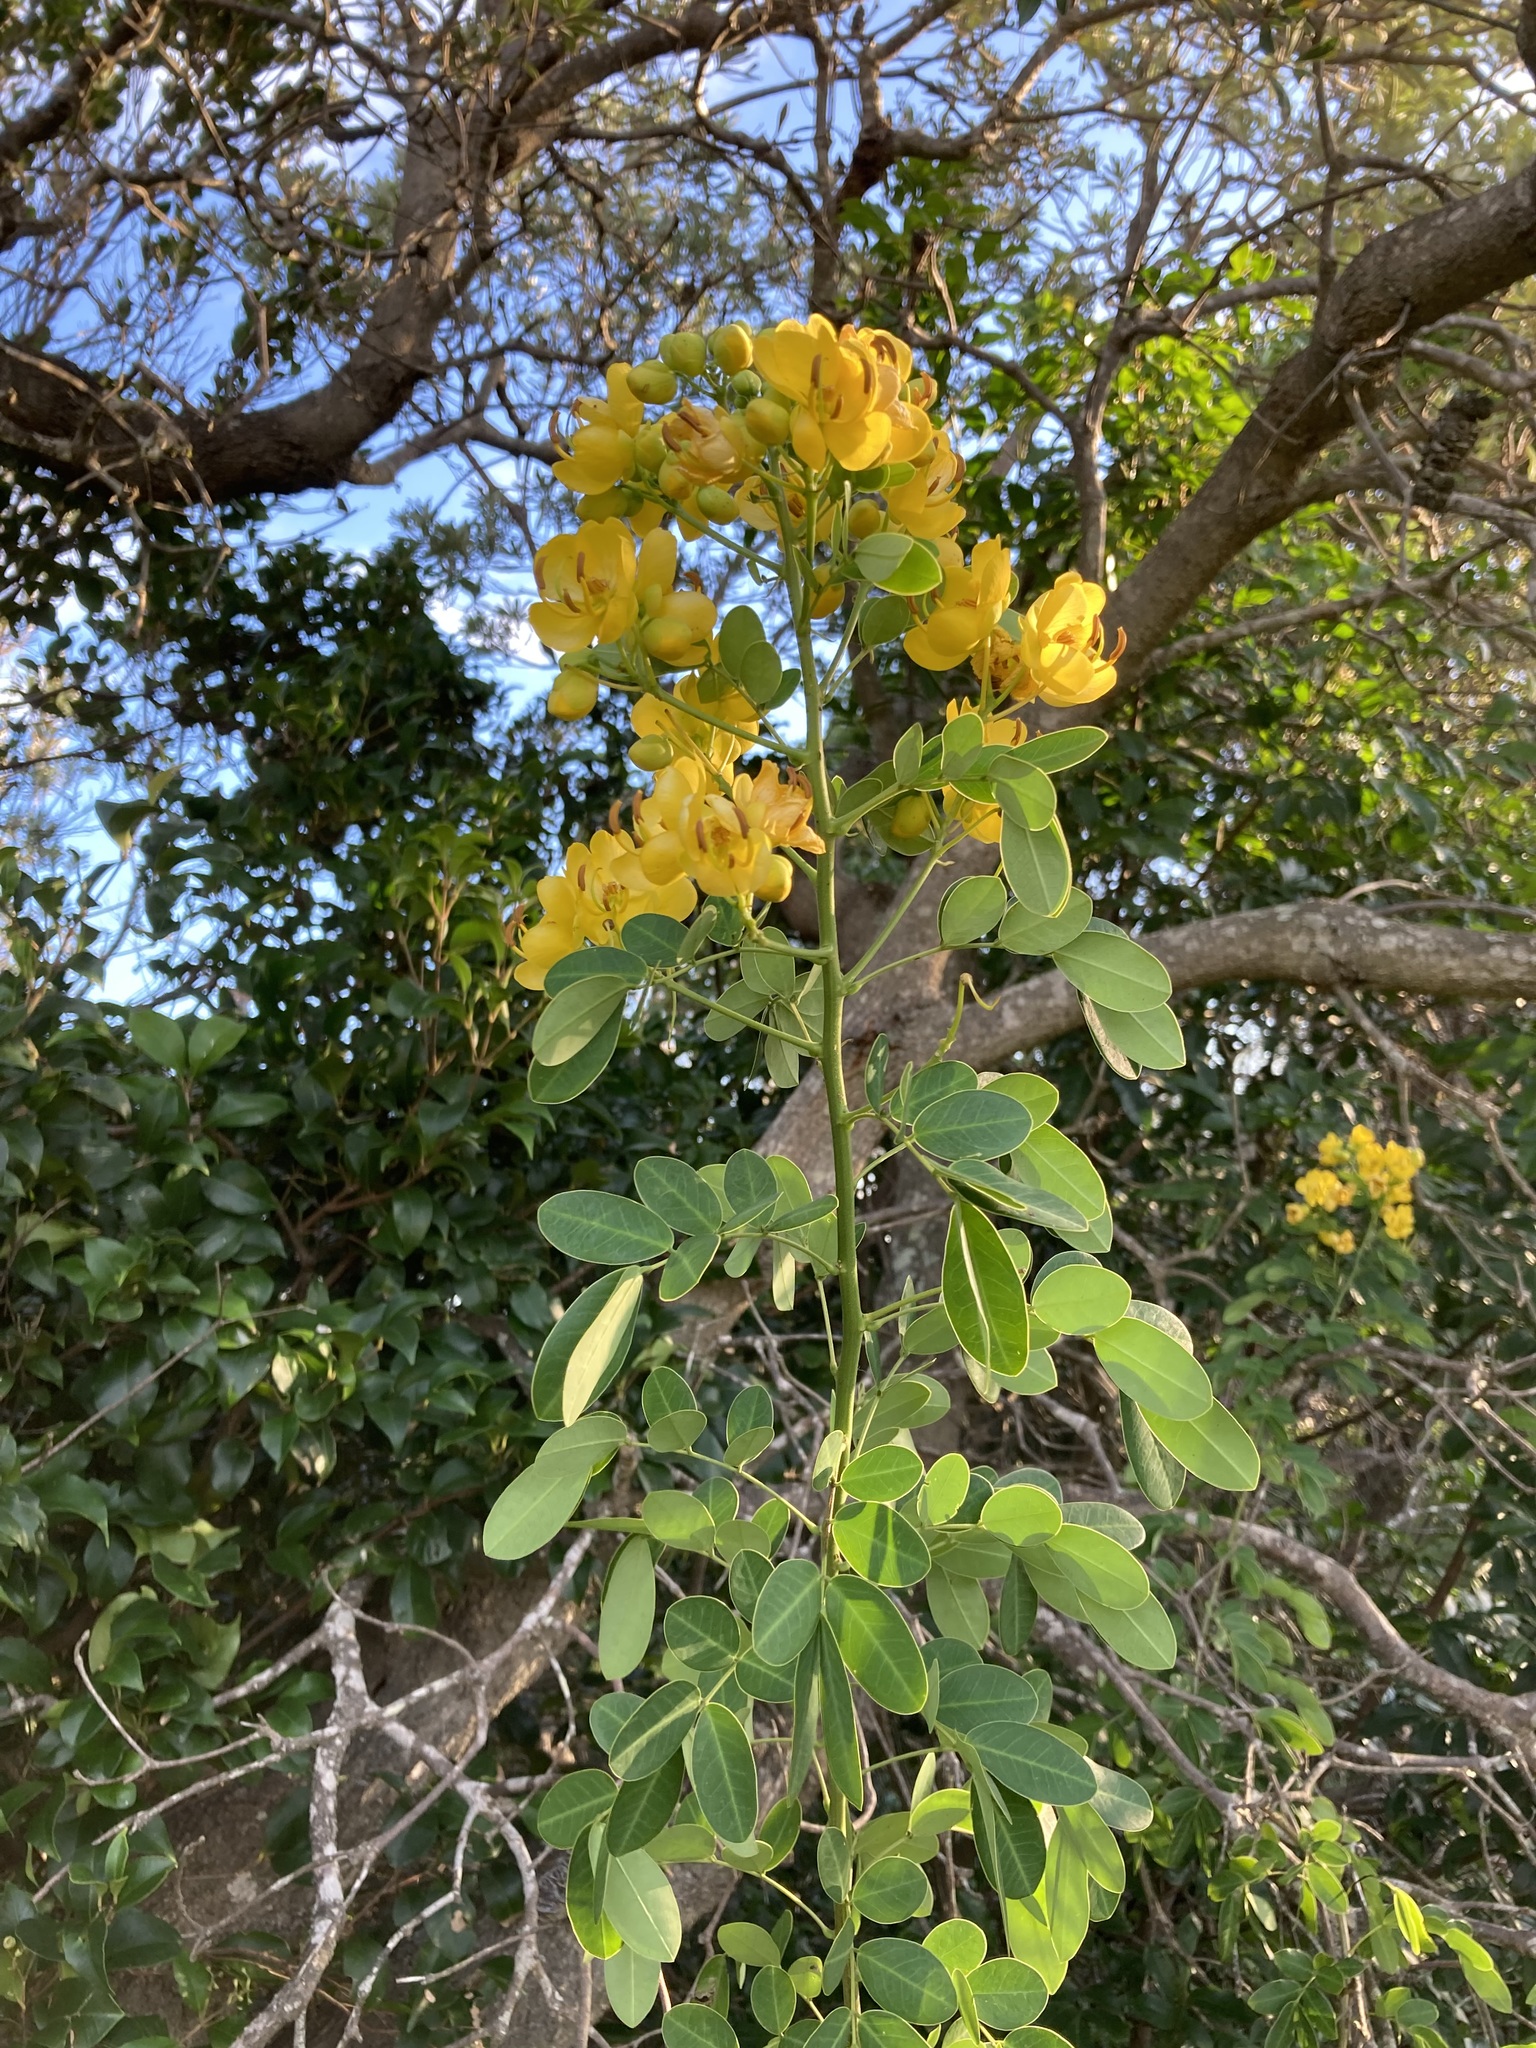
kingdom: Plantae
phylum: Tracheophyta
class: Magnoliopsida
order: Fabales
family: Fabaceae
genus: Senna
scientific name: Senna pendula
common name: Easter cassia
